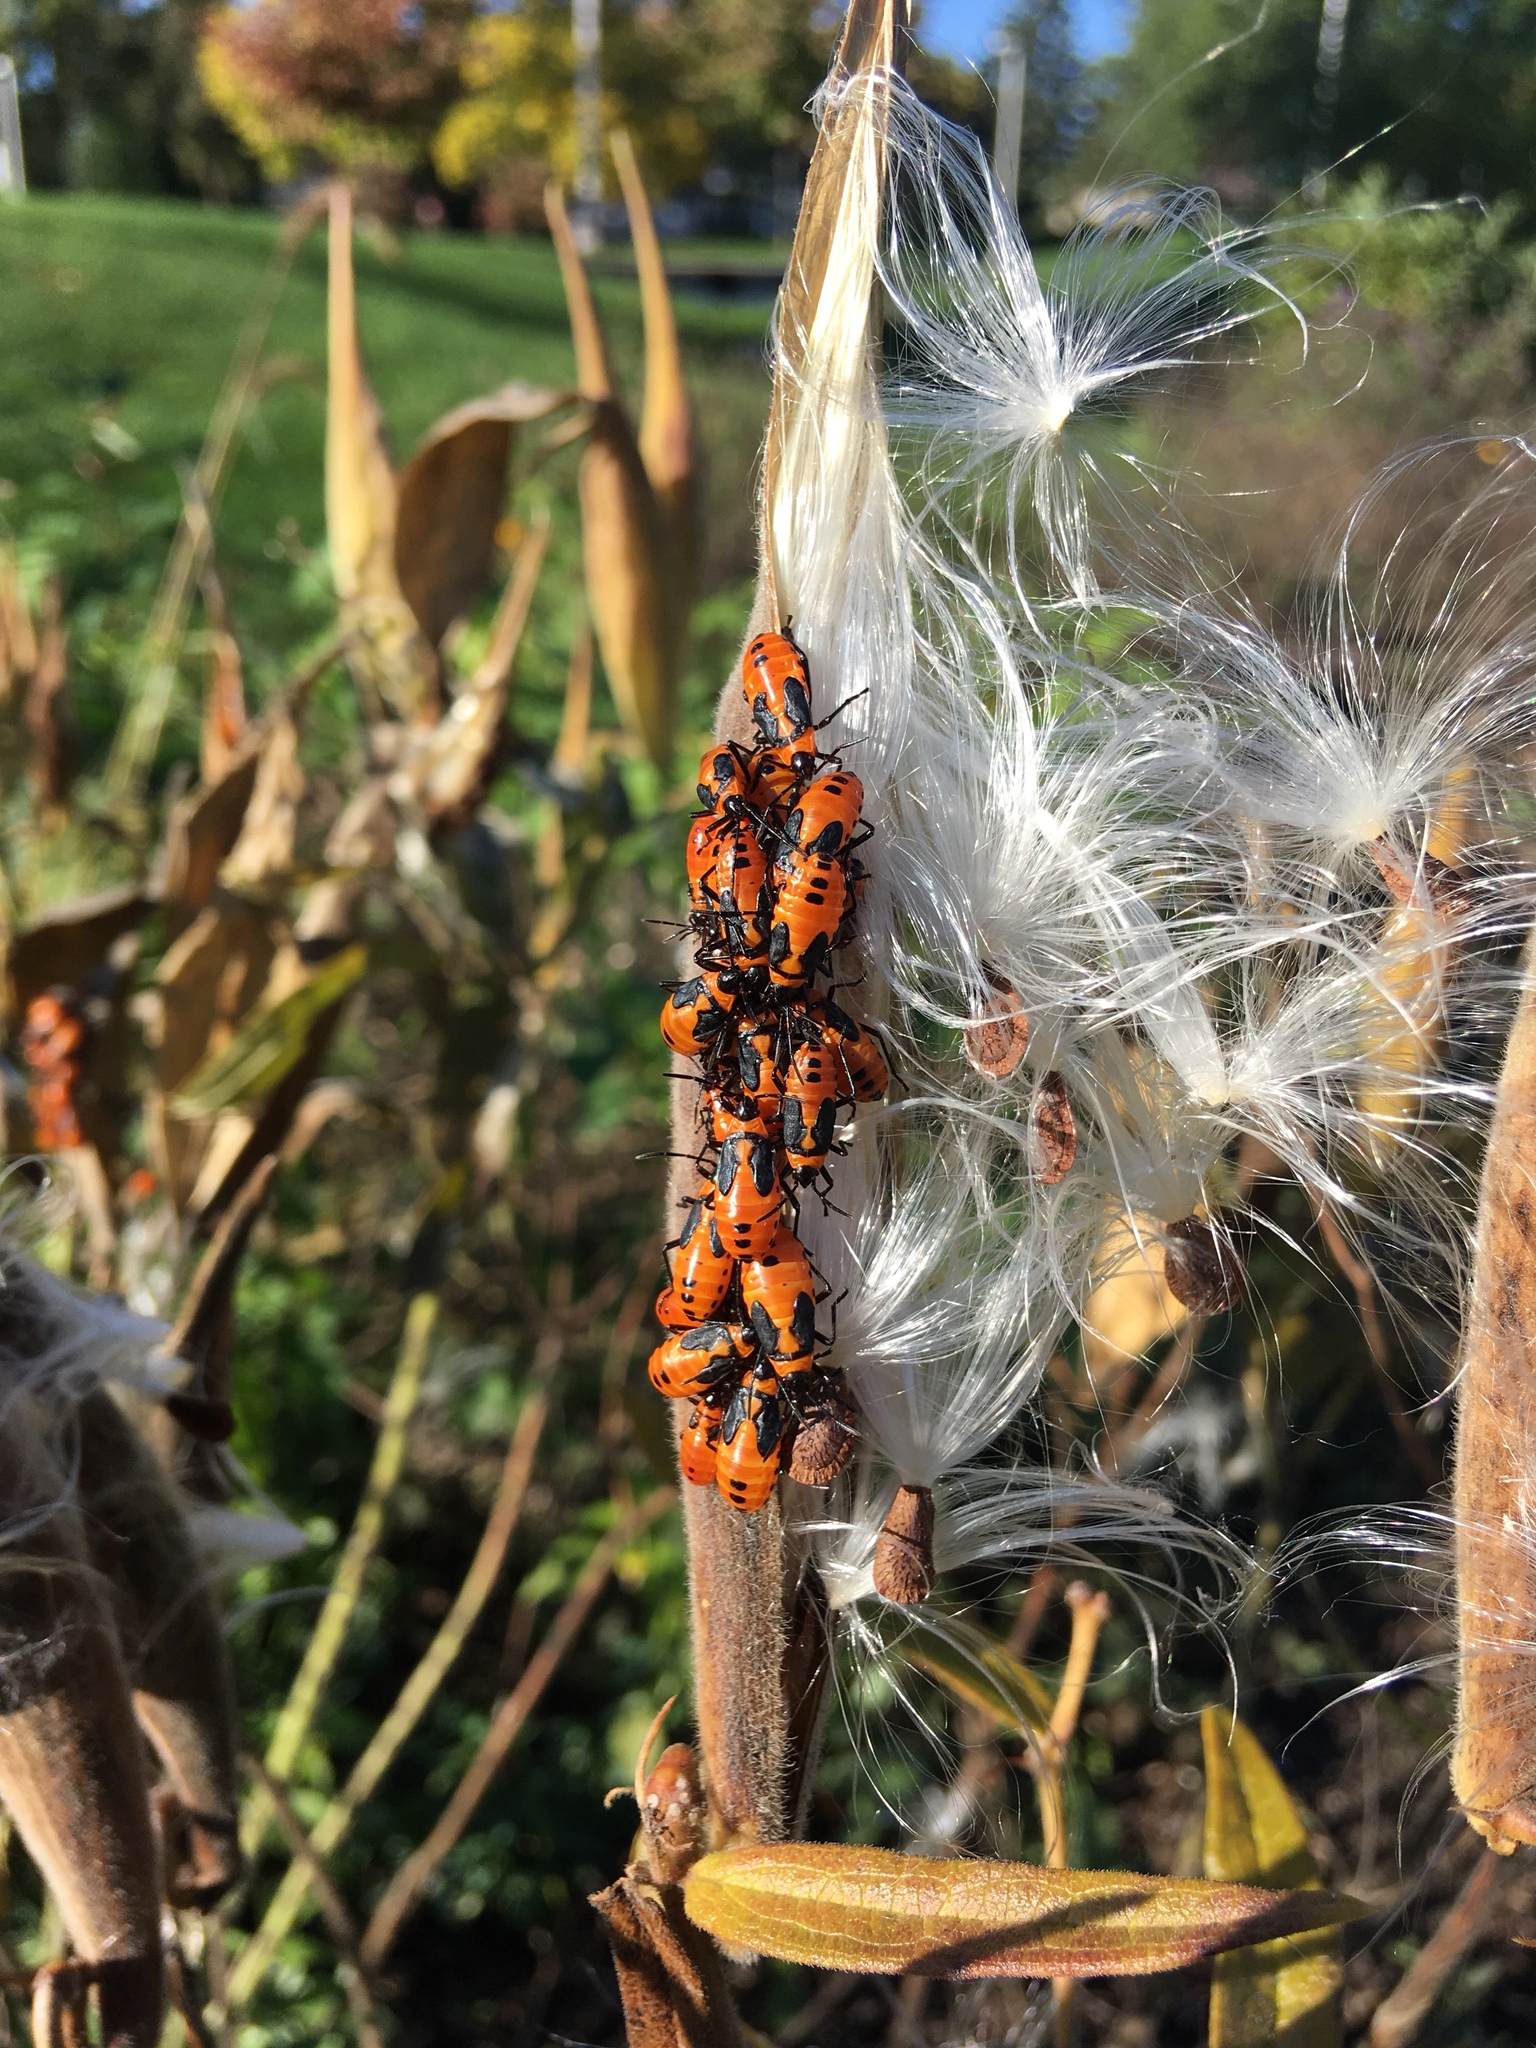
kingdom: Animalia
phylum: Arthropoda
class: Insecta
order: Hemiptera
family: Lygaeidae
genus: Oncopeltus
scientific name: Oncopeltus fasciatus
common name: Large milkweed bug
